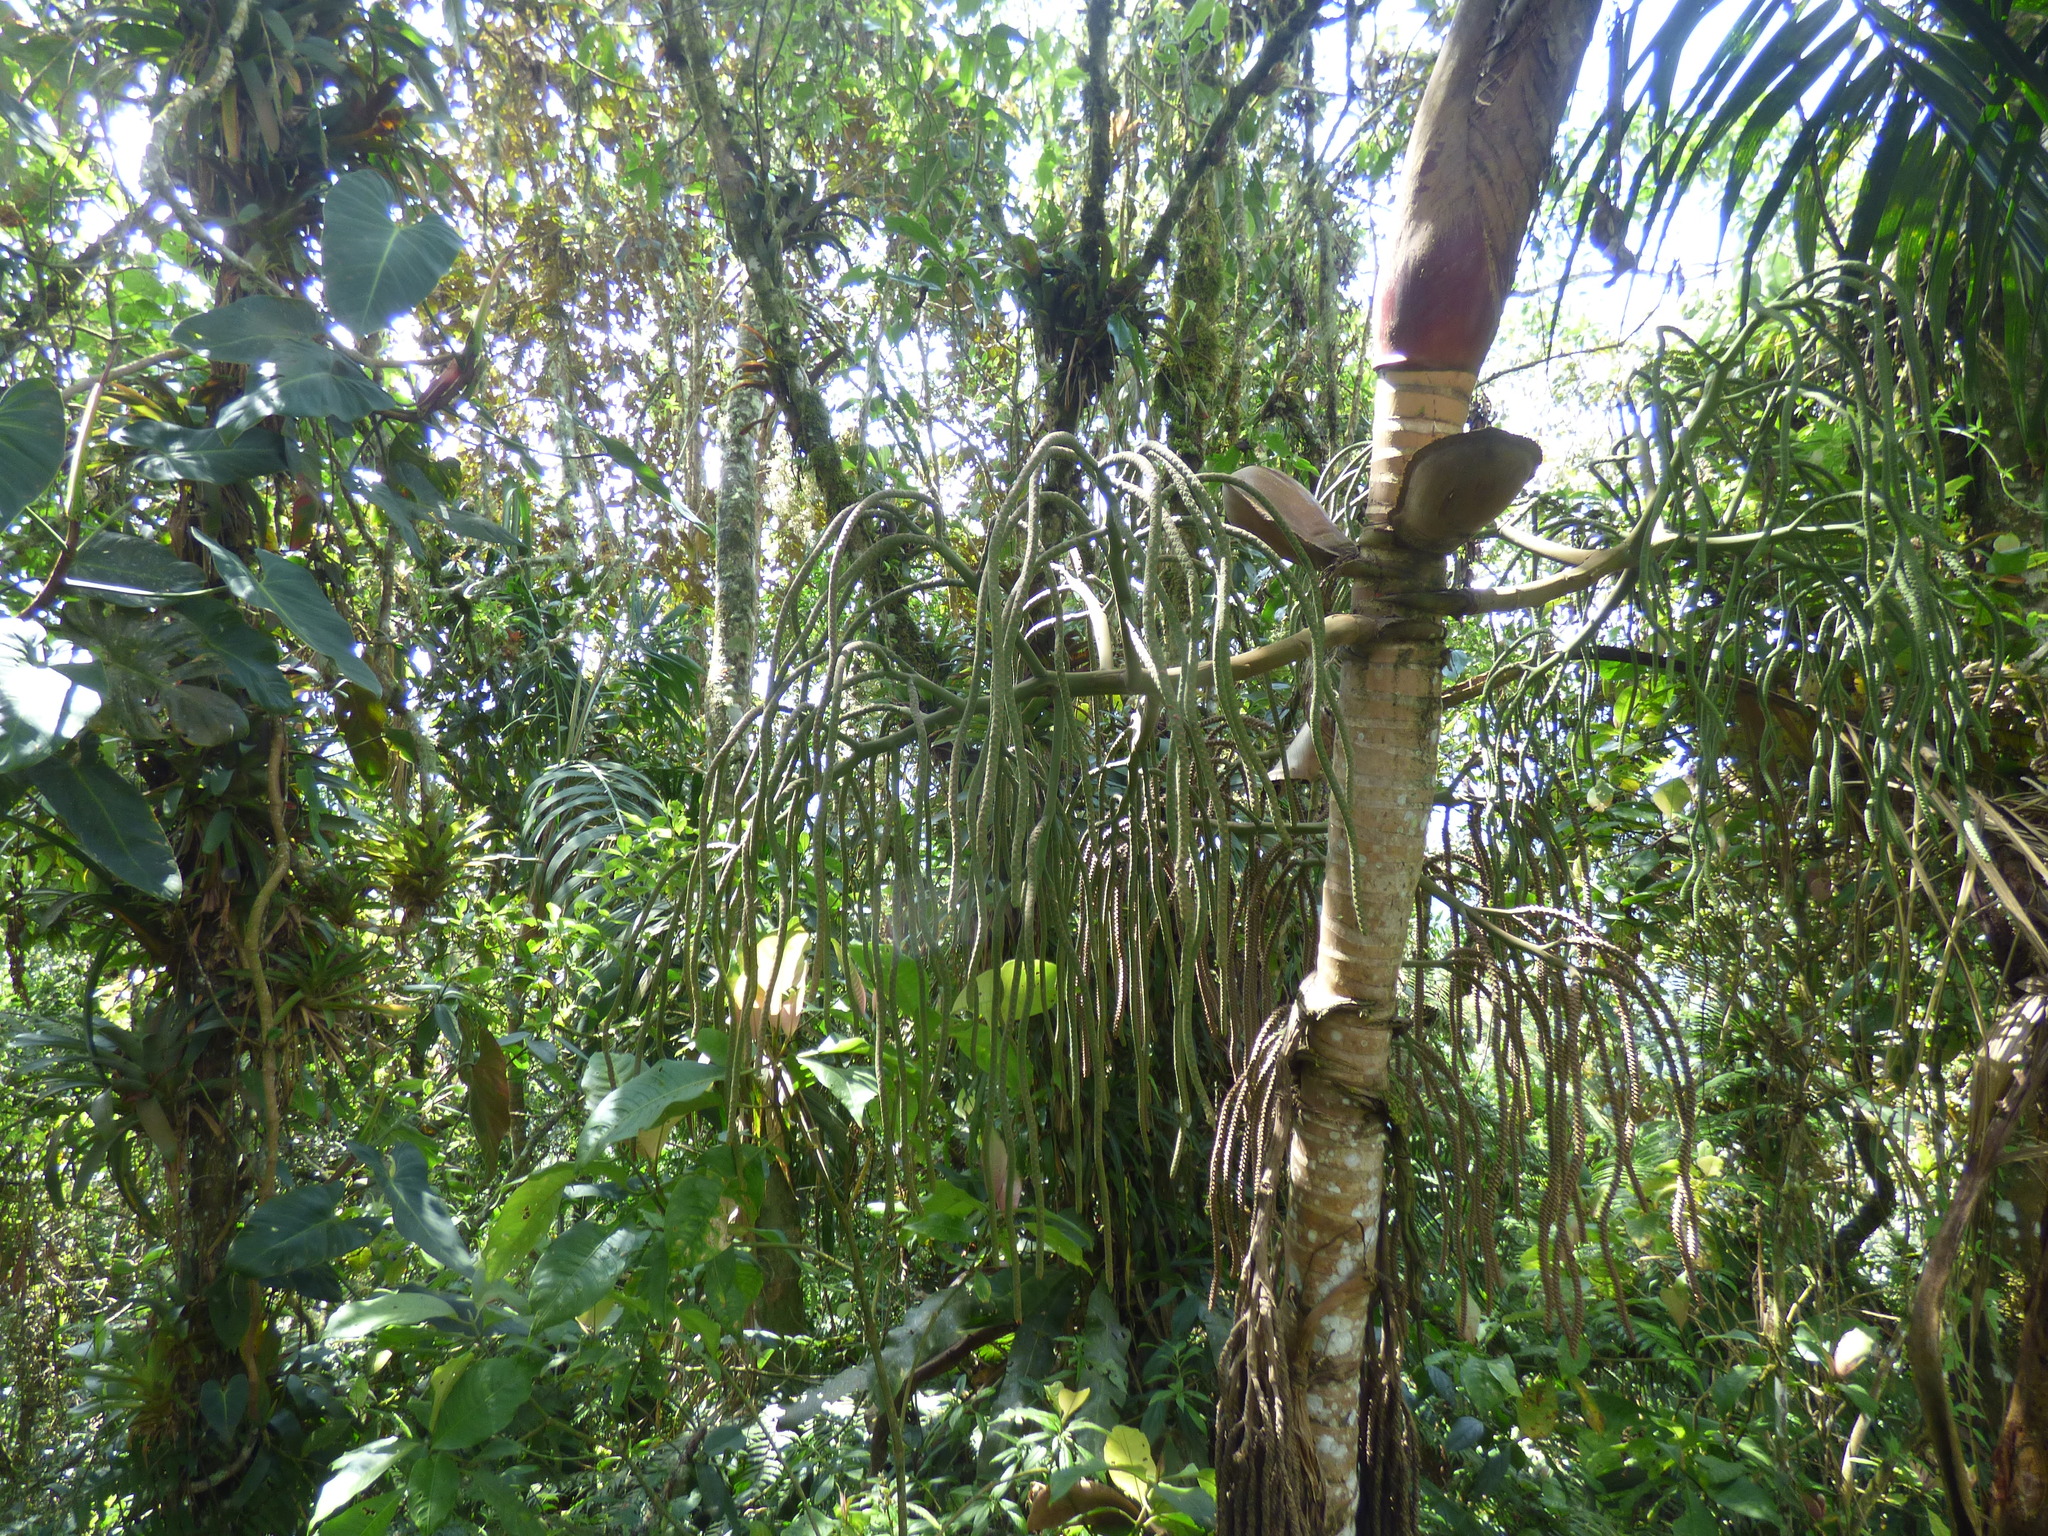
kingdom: Plantae
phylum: Tracheophyta
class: Liliopsida
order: Arecales
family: Arecaceae
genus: Geonoma
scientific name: Geonoma undata
